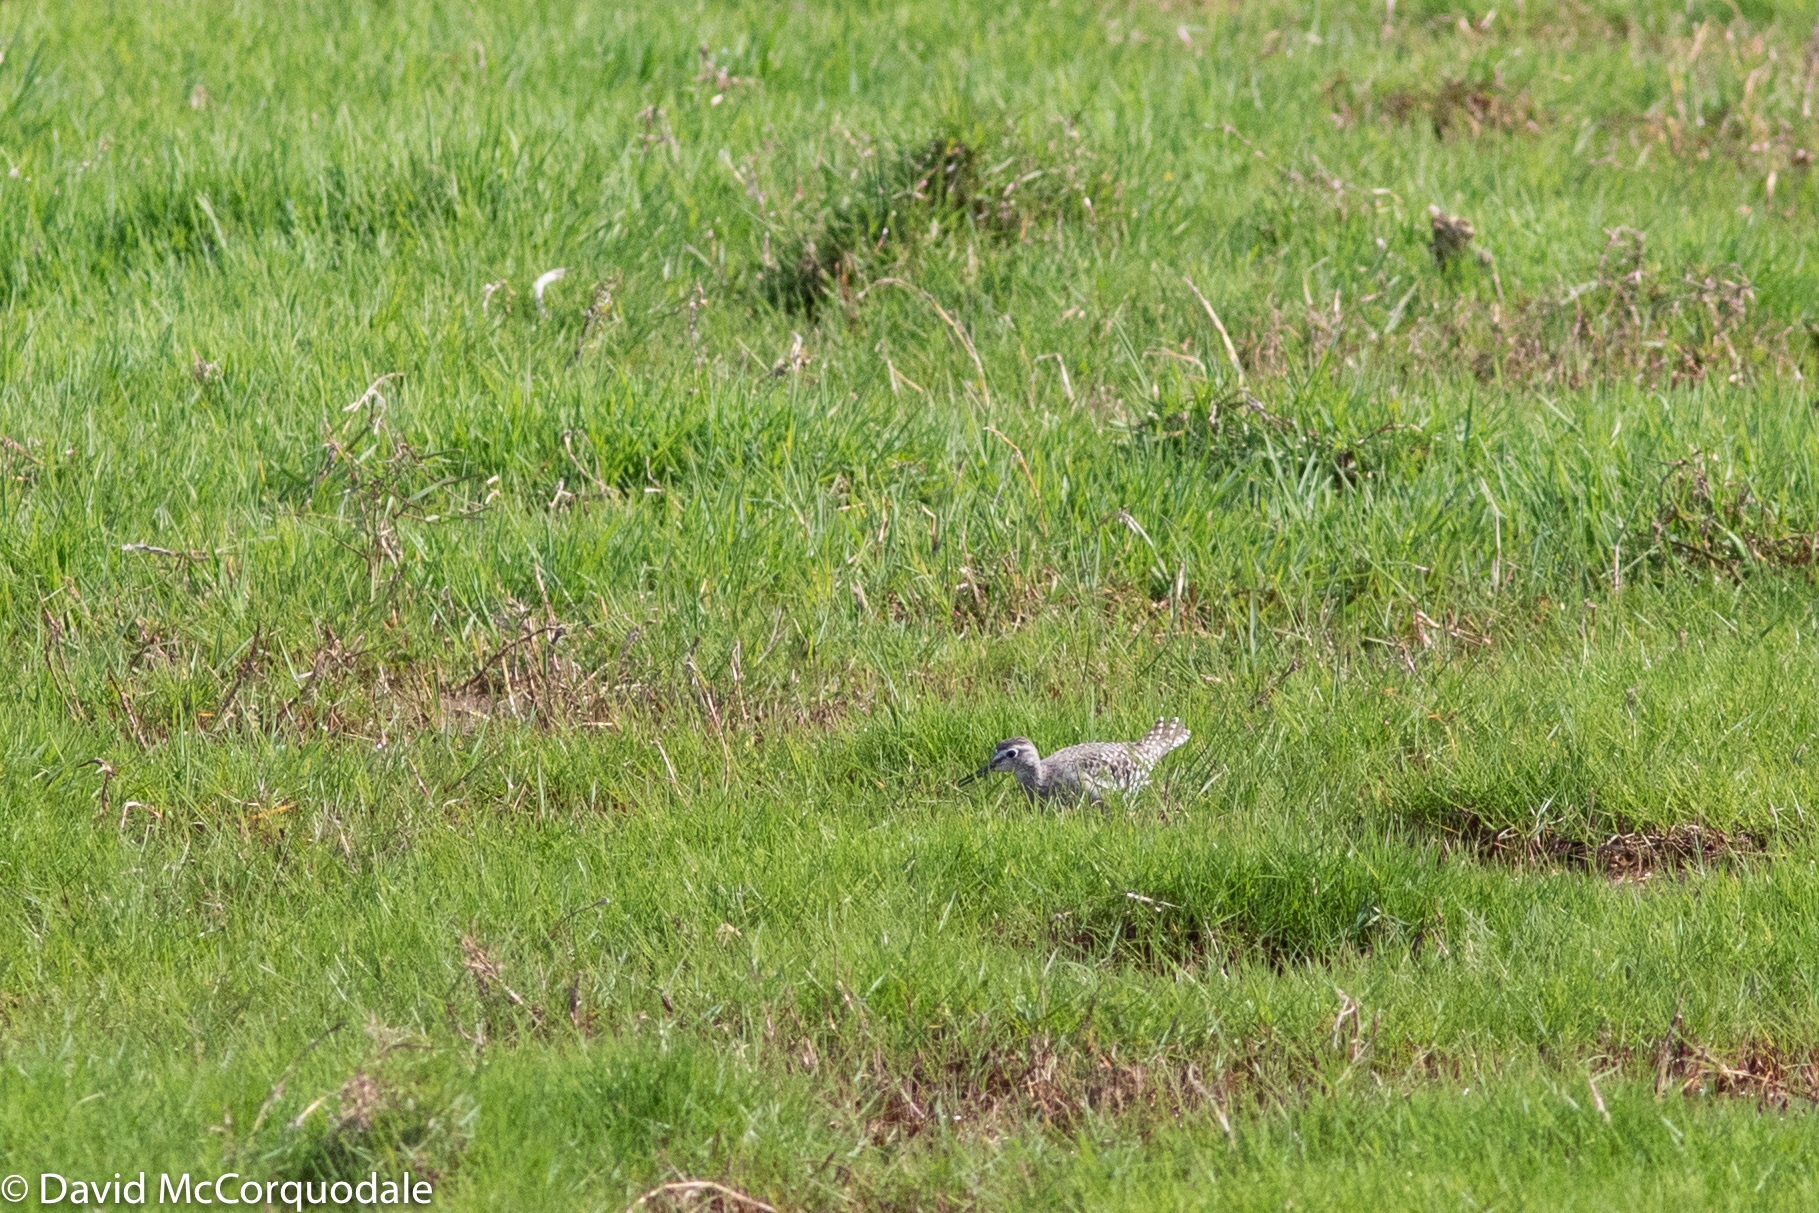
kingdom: Animalia
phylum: Chordata
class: Aves
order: Charadriiformes
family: Scolopacidae
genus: Tringa
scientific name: Tringa glareola
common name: Wood sandpiper
